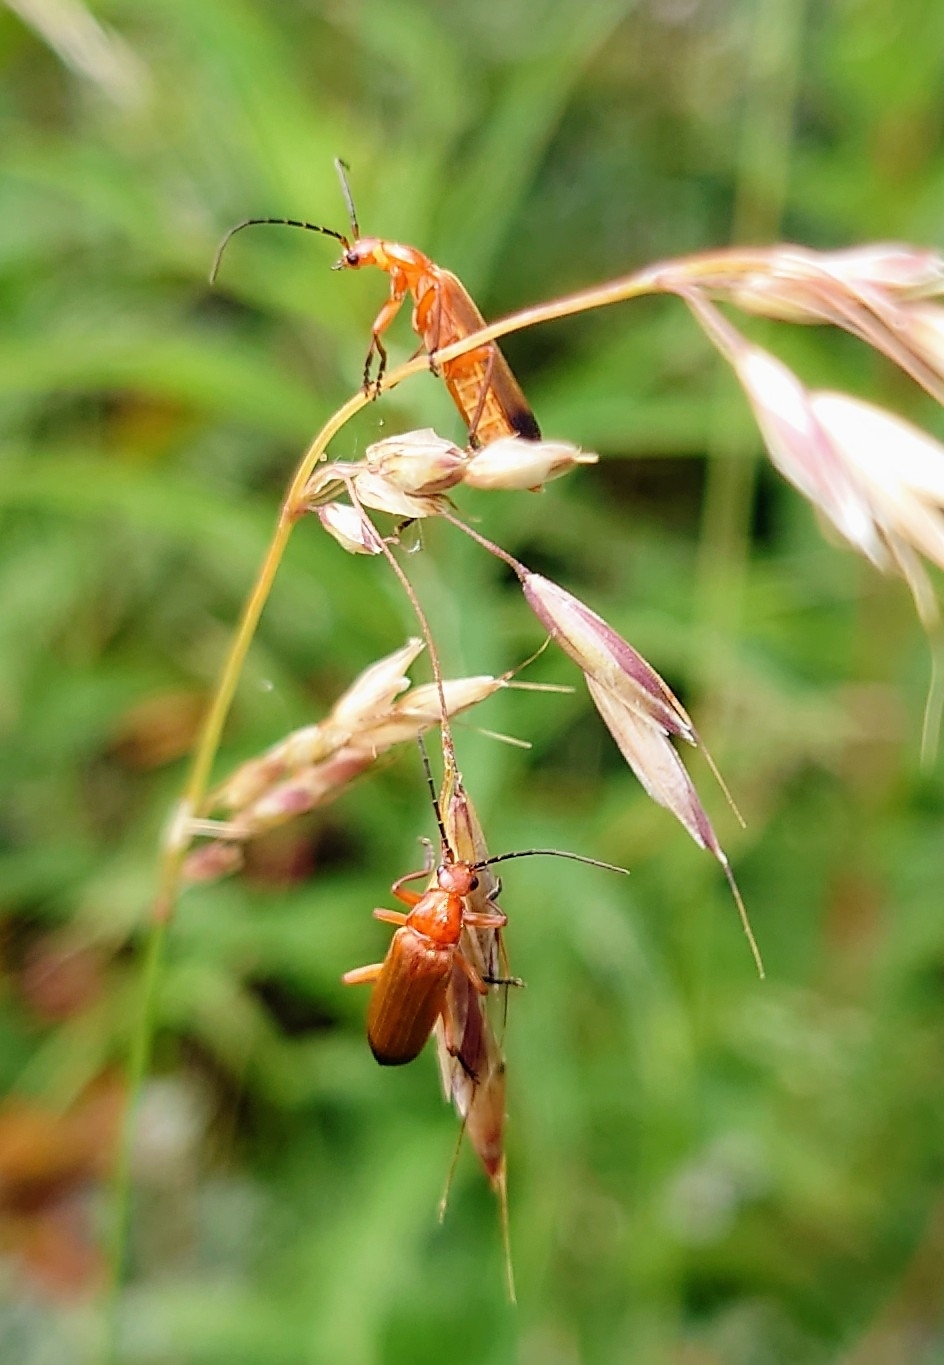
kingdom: Animalia
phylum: Arthropoda
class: Insecta
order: Coleoptera
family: Cantharidae
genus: Rhagonycha
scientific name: Rhagonycha fulva
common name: Common red soldier beetle
